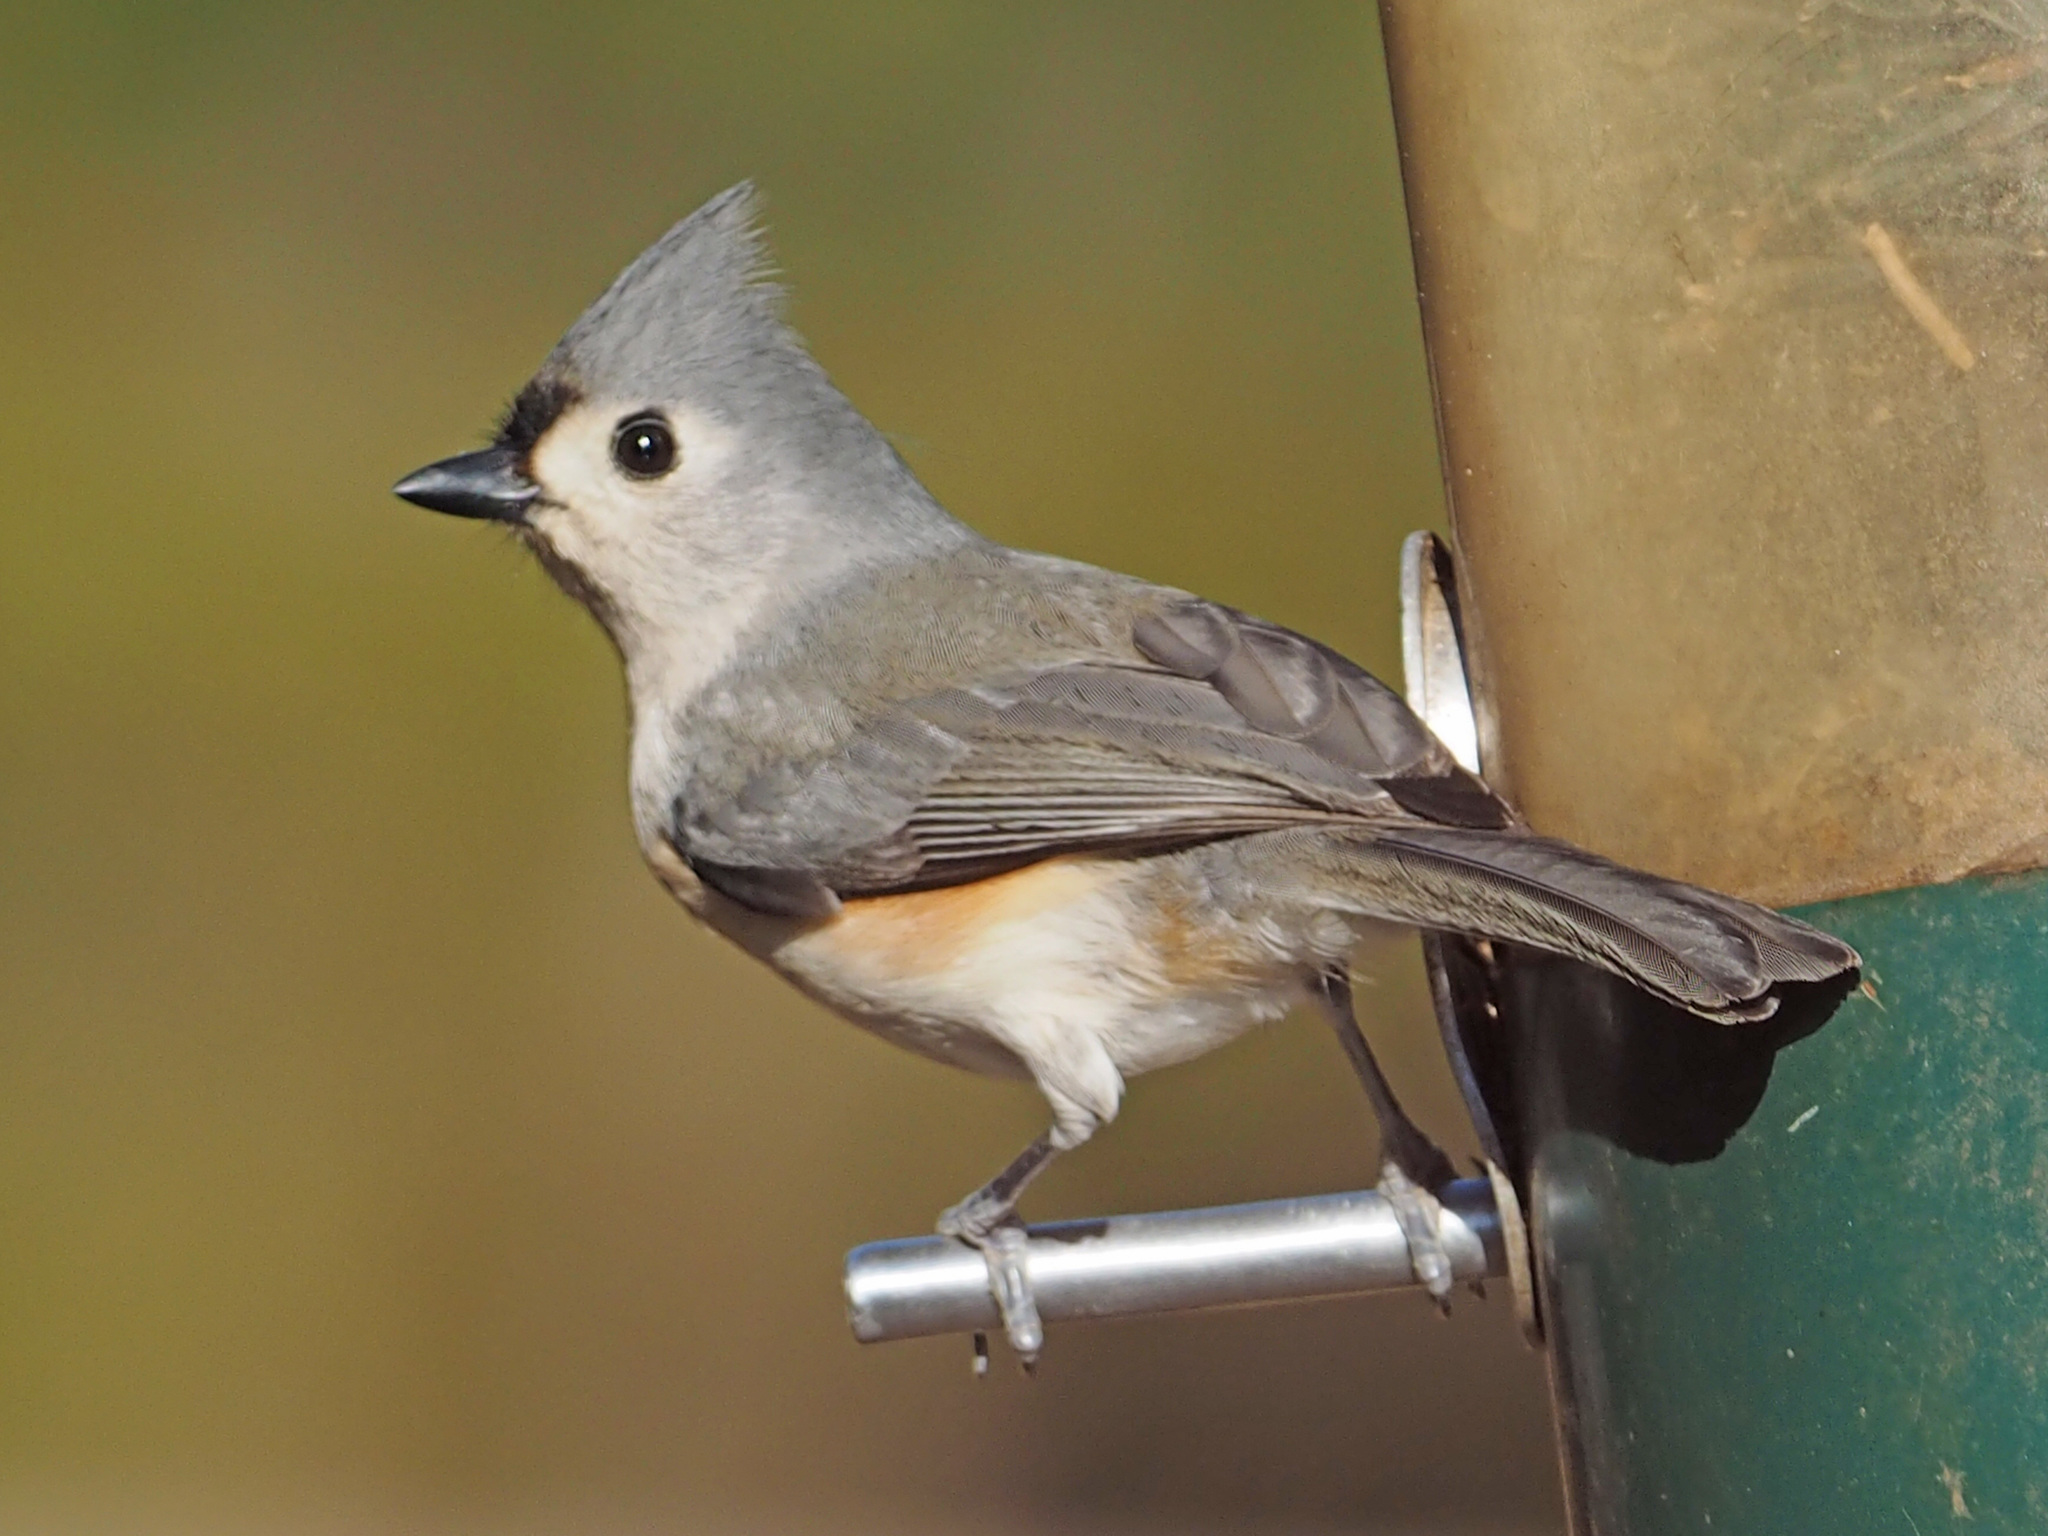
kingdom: Animalia
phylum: Chordata
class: Aves
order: Passeriformes
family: Paridae
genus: Baeolophus
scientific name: Baeolophus bicolor
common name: Tufted titmouse
